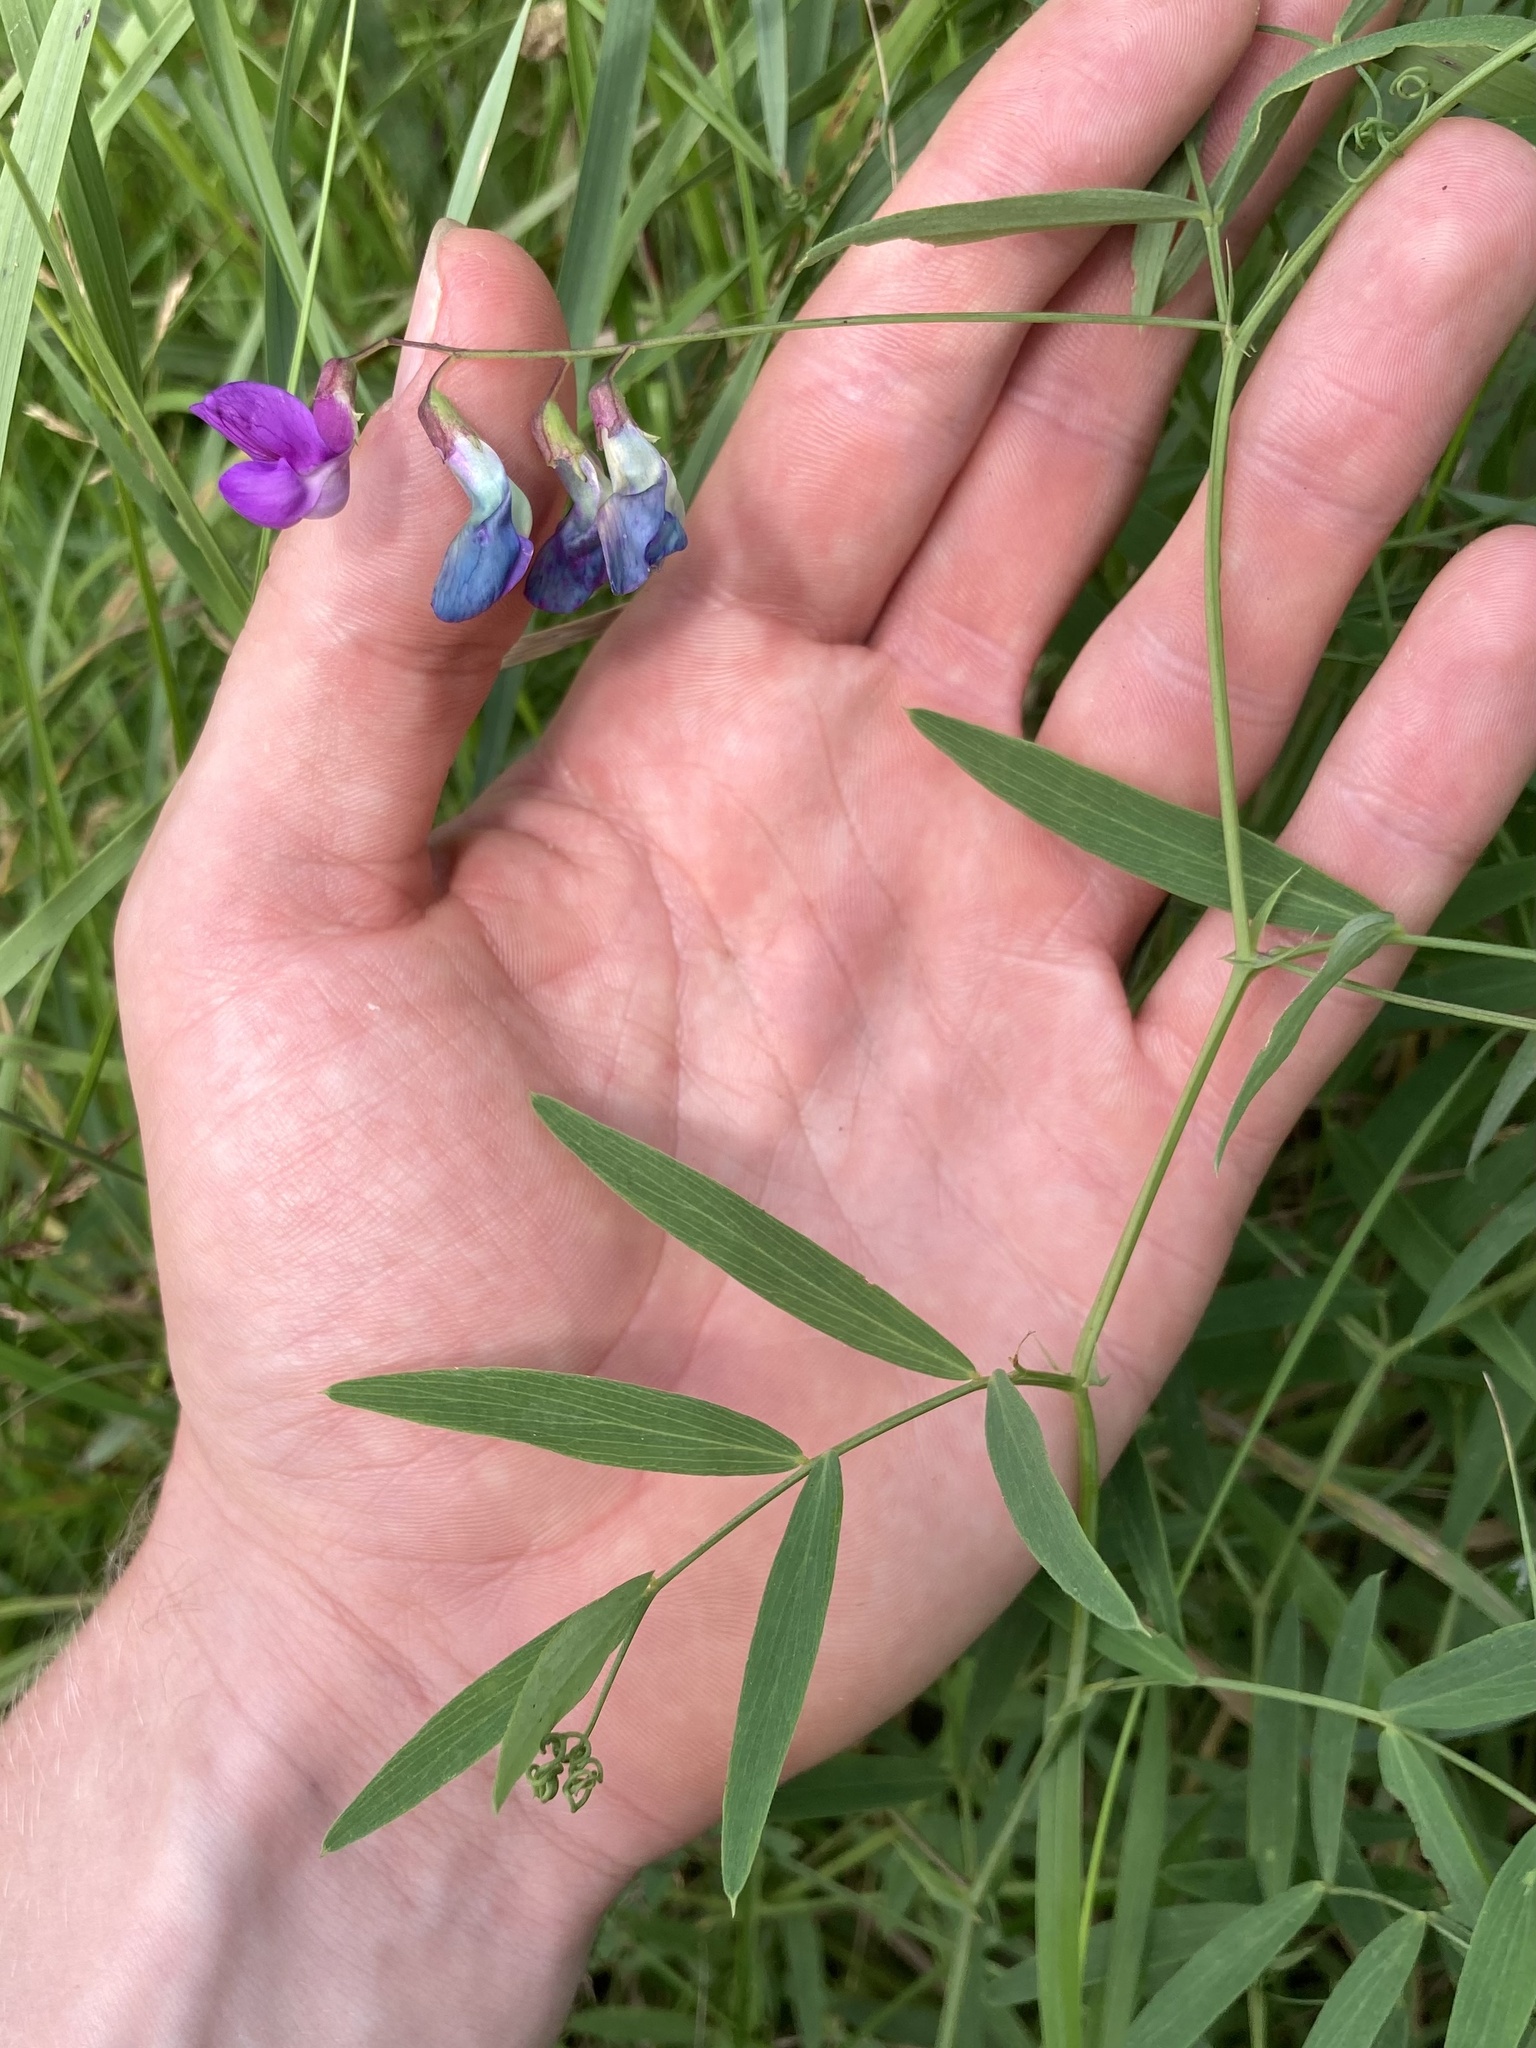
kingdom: Plantae
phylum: Tracheophyta
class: Magnoliopsida
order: Fabales
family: Fabaceae
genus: Lathyrus
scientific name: Lathyrus palustris
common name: Marsh pea
